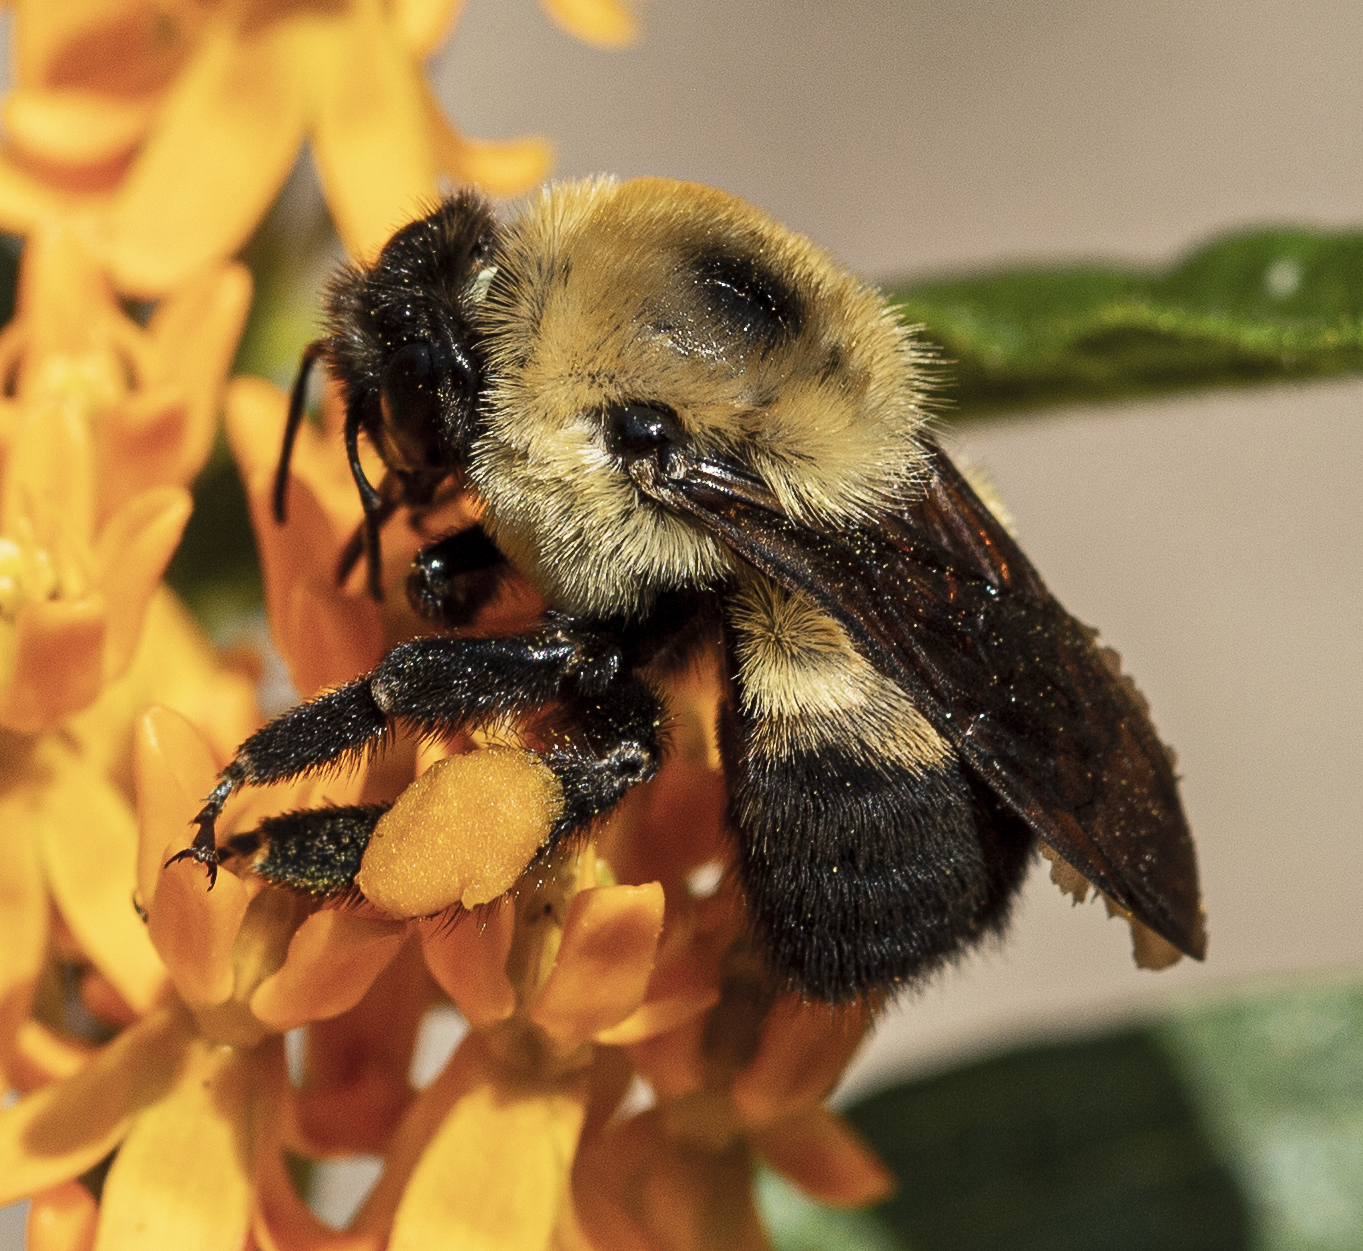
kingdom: Animalia
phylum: Arthropoda
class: Insecta
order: Hymenoptera
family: Apidae
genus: Bombus
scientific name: Bombus griseocollis
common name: Brown-belted bumble bee
